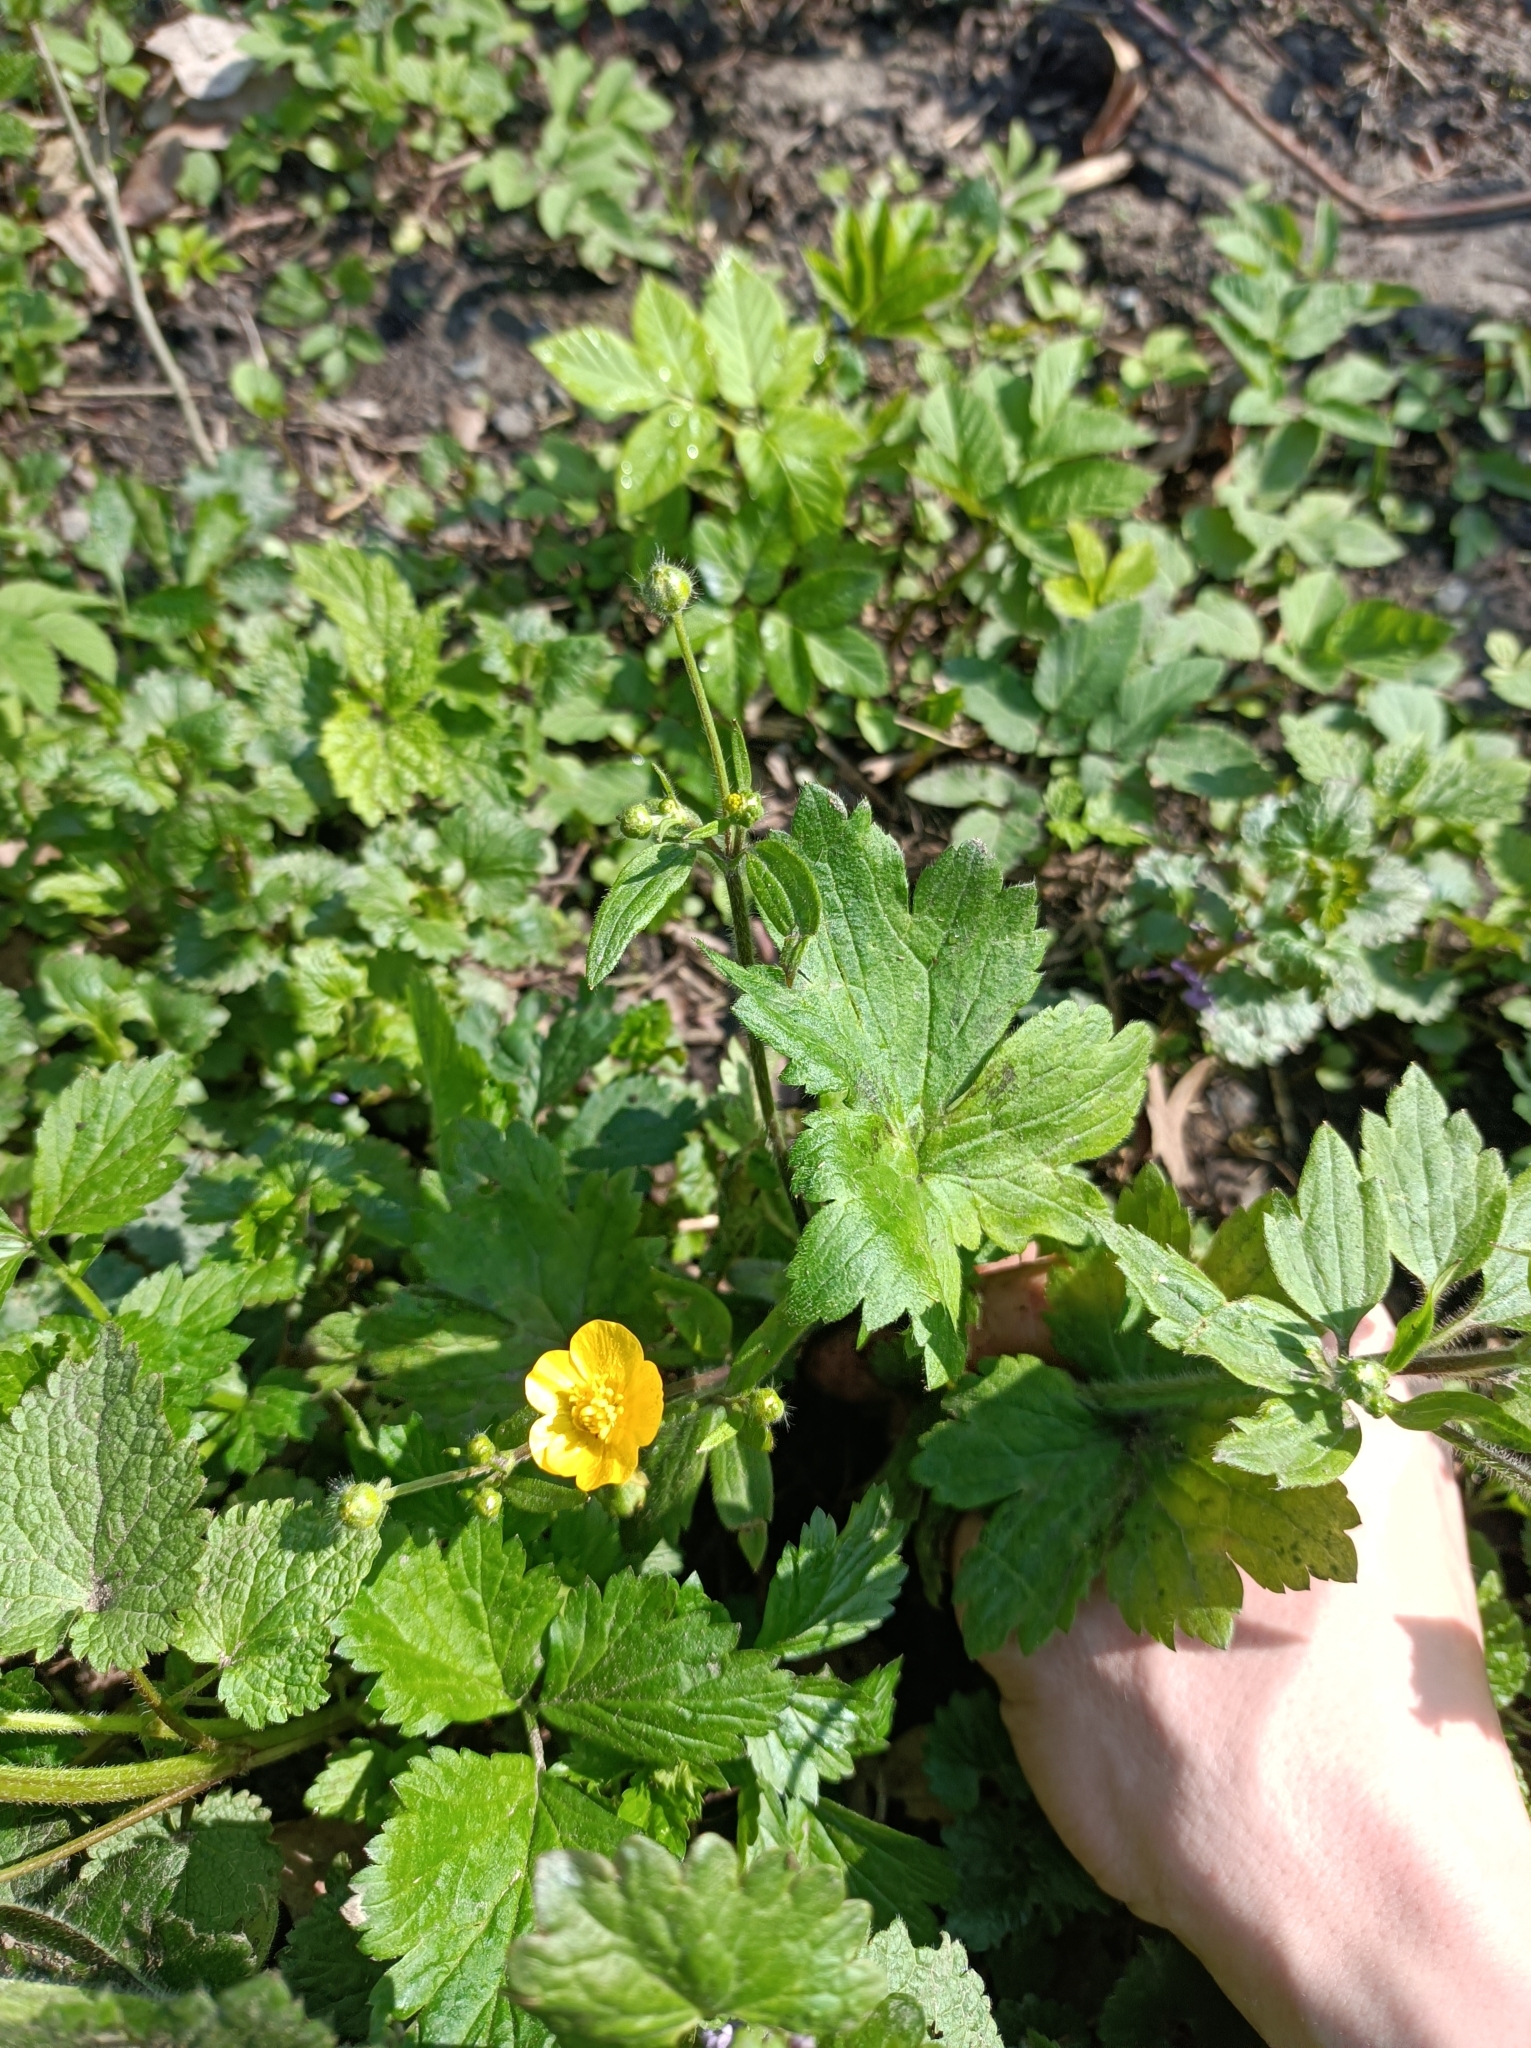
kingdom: Plantae
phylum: Tracheophyta
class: Magnoliopsida
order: Ranunculales
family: Ranunculaceae
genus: Ranunculus
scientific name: Ranunculus lanuginosus
